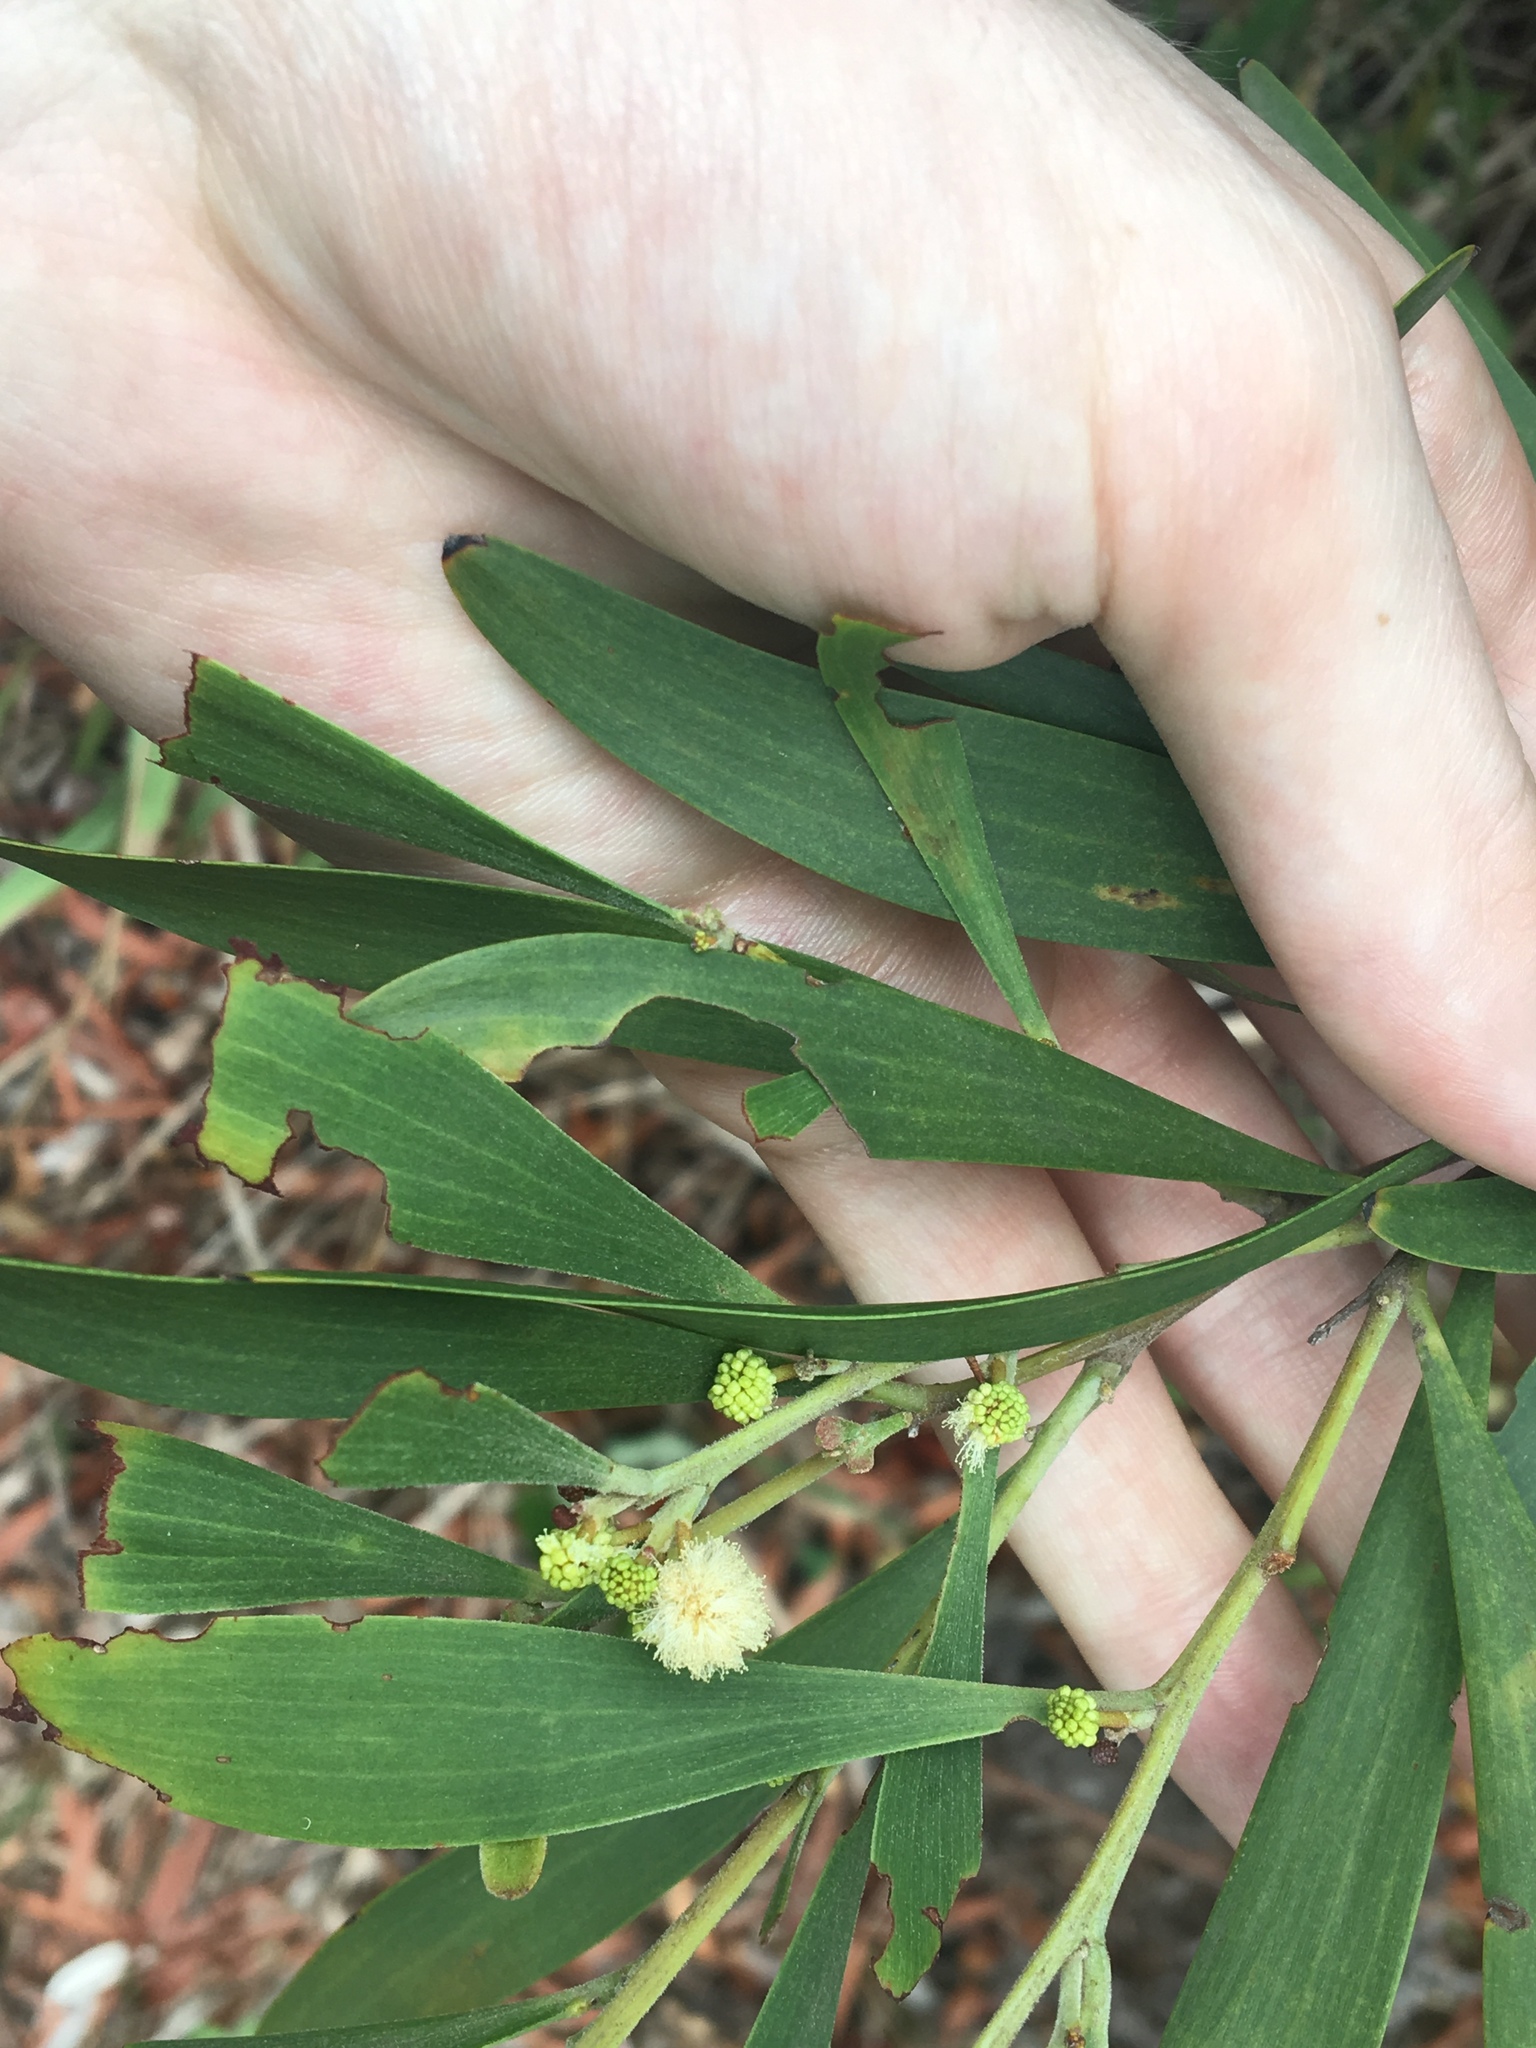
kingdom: Plantae
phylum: Tracheophyta
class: Magnoliopsida
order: Fabales
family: Fabaceae
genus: Acacia
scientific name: Acacia melanoxylon
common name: Blackwood
